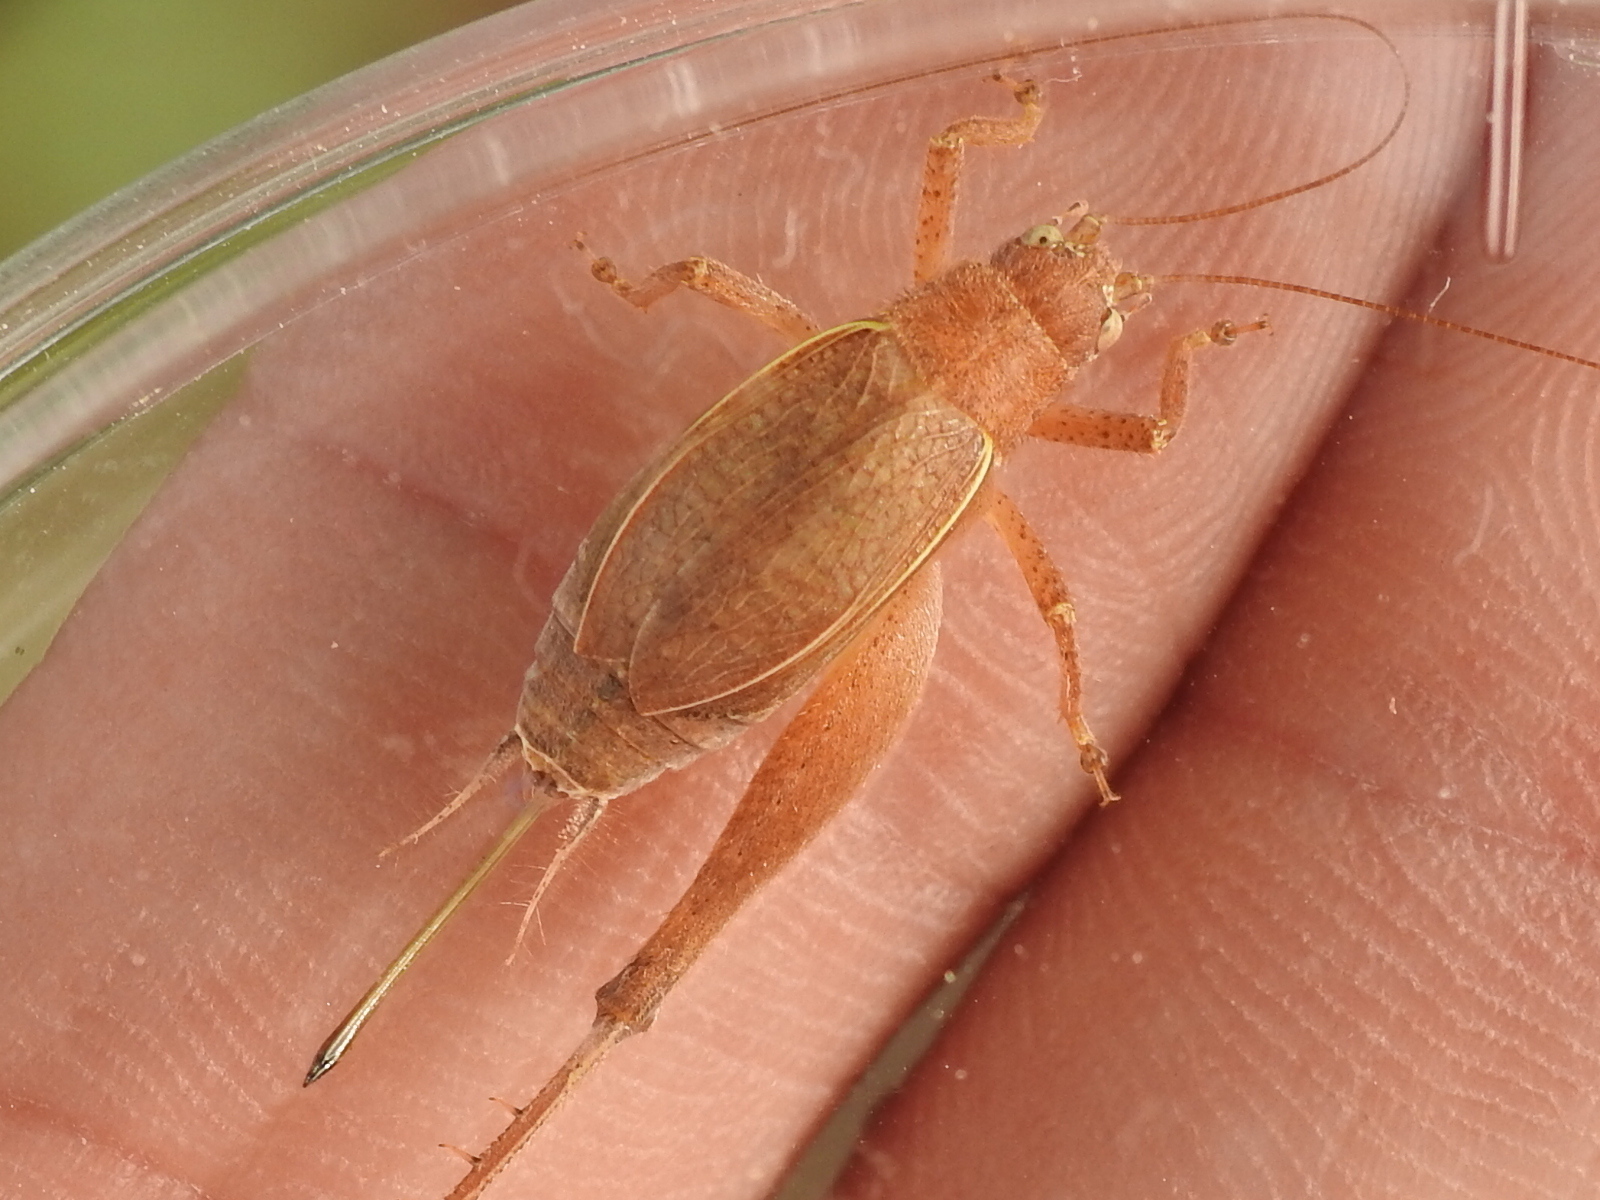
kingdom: Animalia
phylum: Arthropoda
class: Insecta
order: Orthoptera
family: Gryllidae
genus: Hapithus
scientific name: Hapithus agitator
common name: Restless bush cricket
